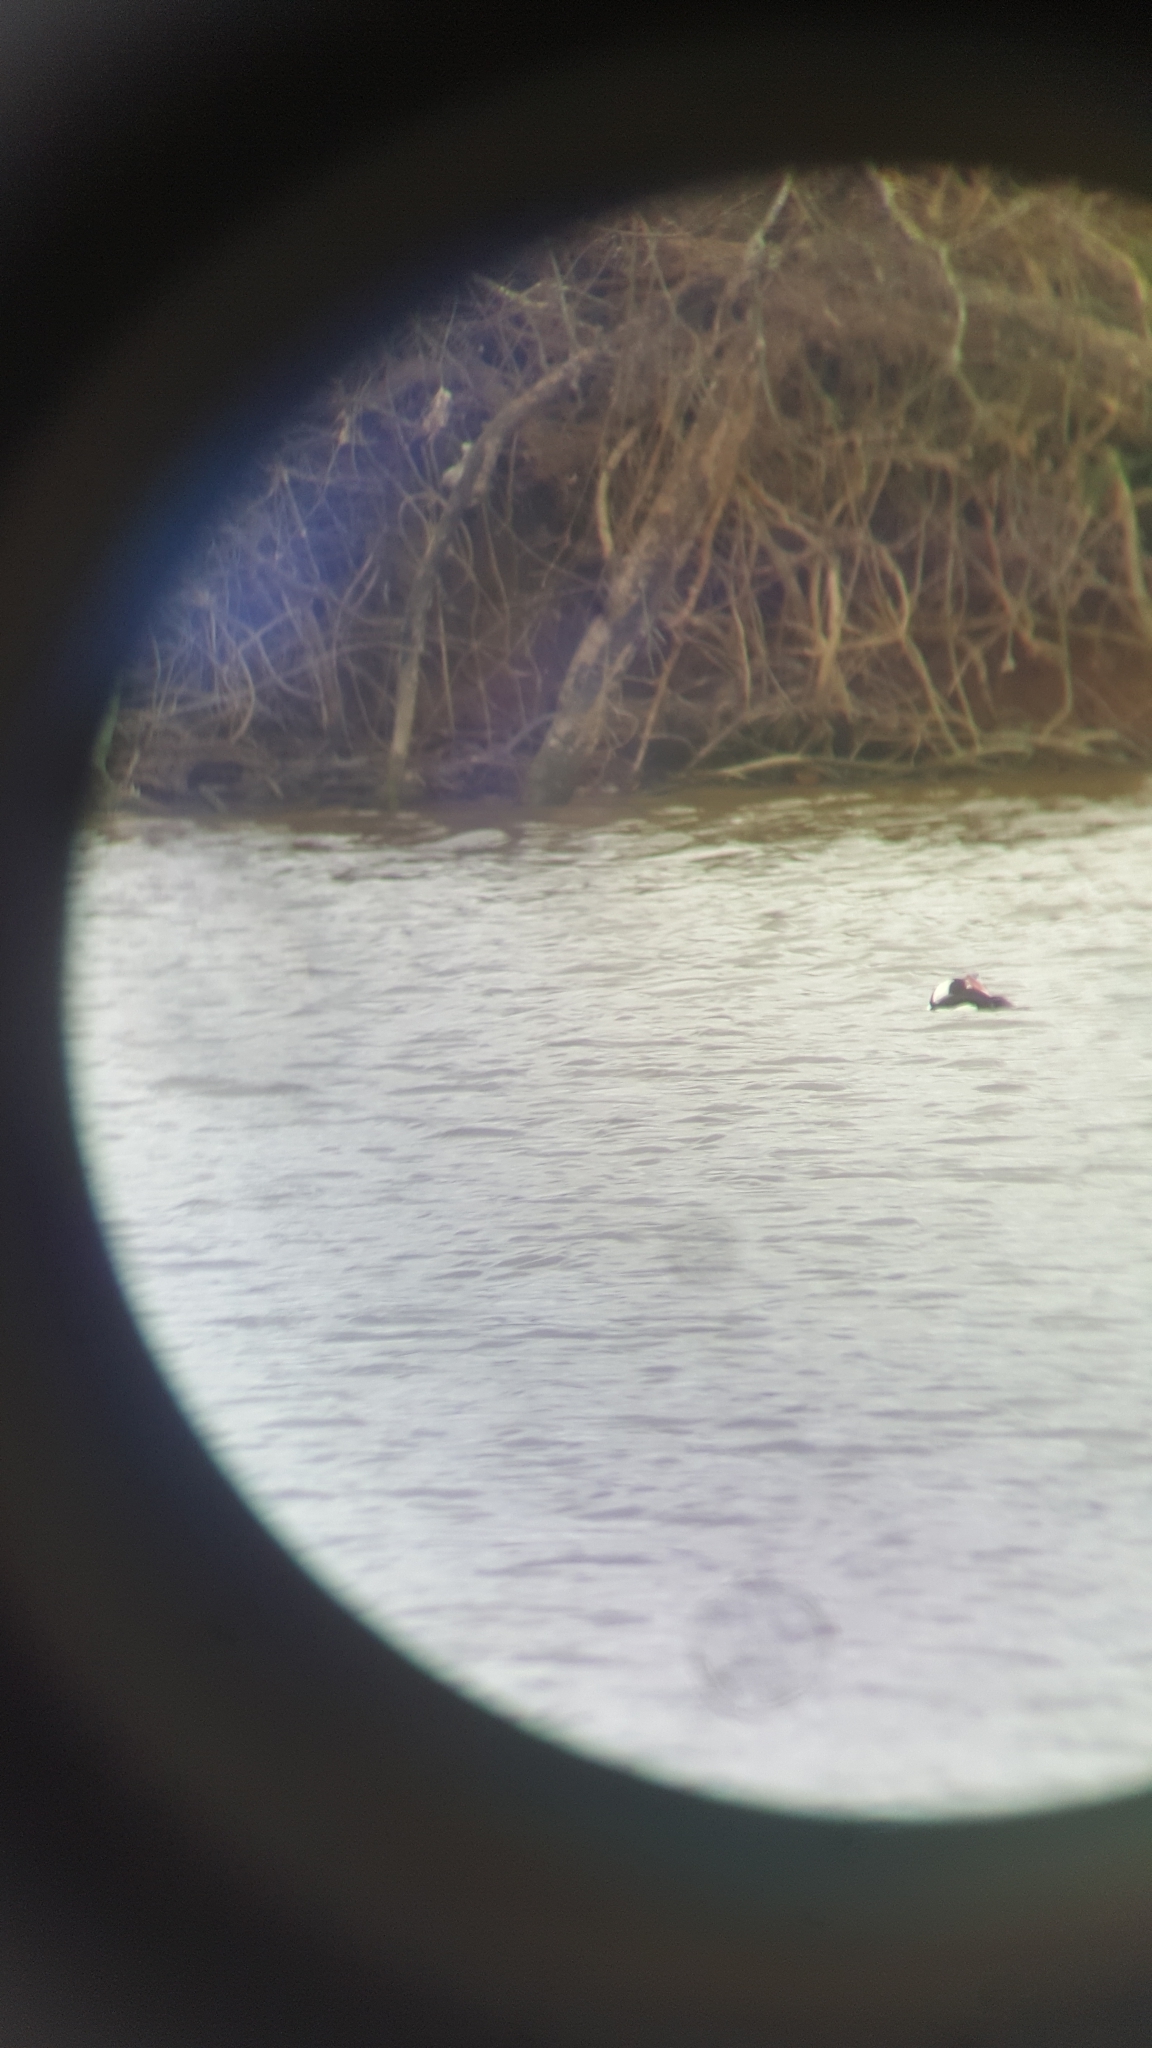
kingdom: Animalia
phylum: Chordata
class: Aves
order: Anseriformes
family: Anatidae
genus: Bucephala
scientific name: Bucephala albeola
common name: Bufflehead
